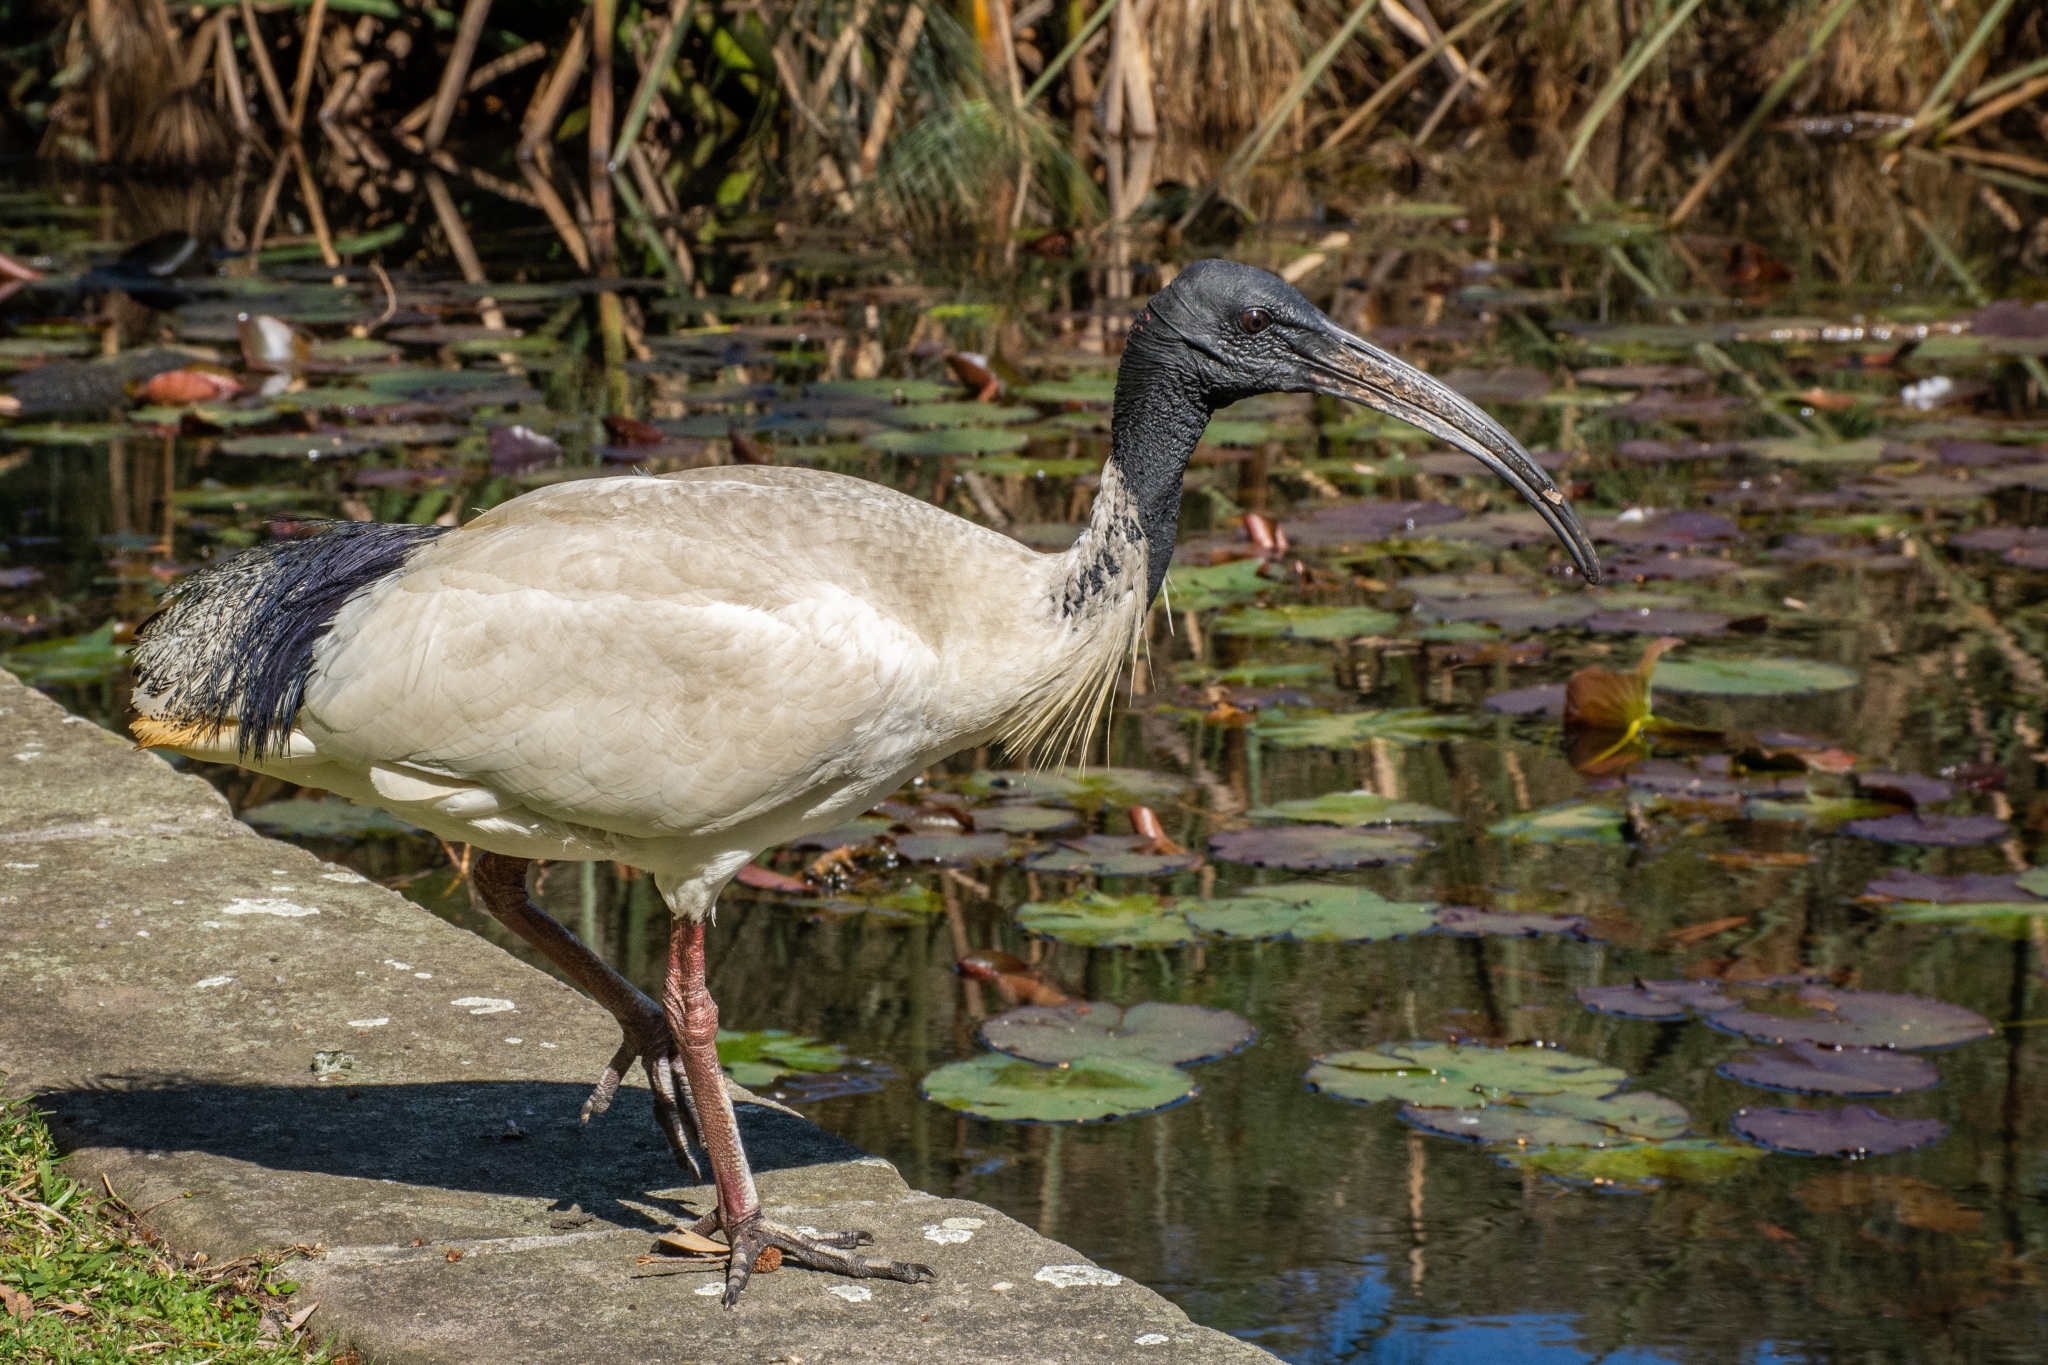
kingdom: Animalia
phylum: Chordata
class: Aves
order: Pelecaniformes
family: Threskiornithidae
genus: Threskiornis
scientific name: Threskiornis molucca
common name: Australian white ibis
